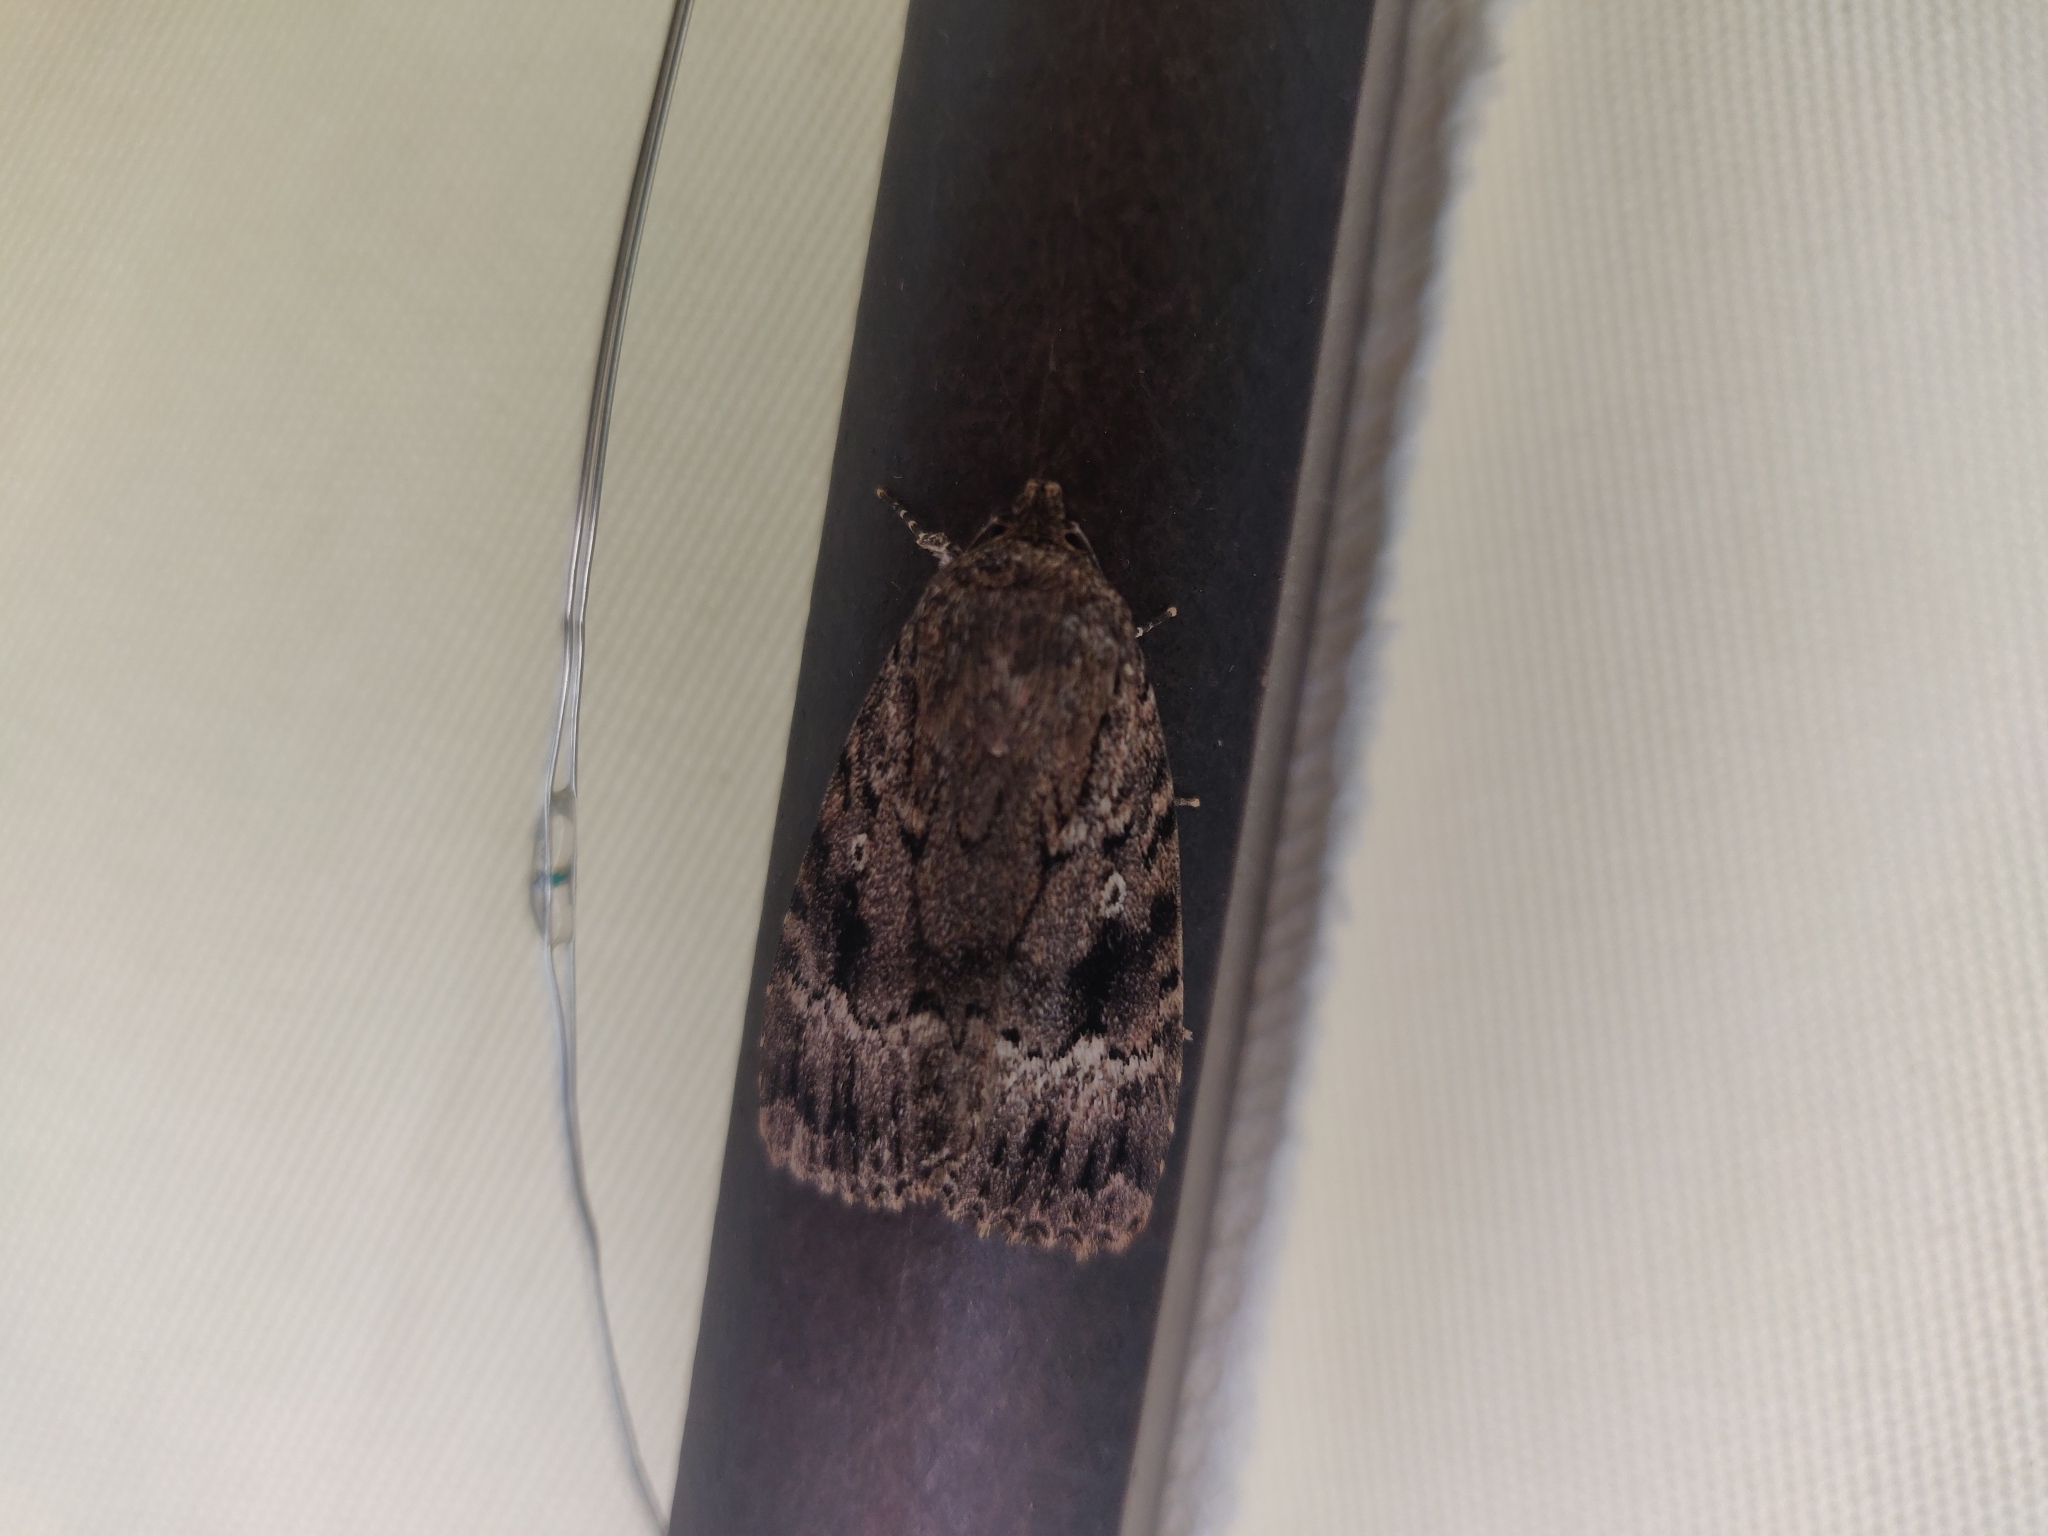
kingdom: Animalia
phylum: Arthropoda
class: Insecta
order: Lepidoptera
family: Noctuidae
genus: Amphipyra
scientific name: Amphipyra pyramidea
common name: Copper underwing
